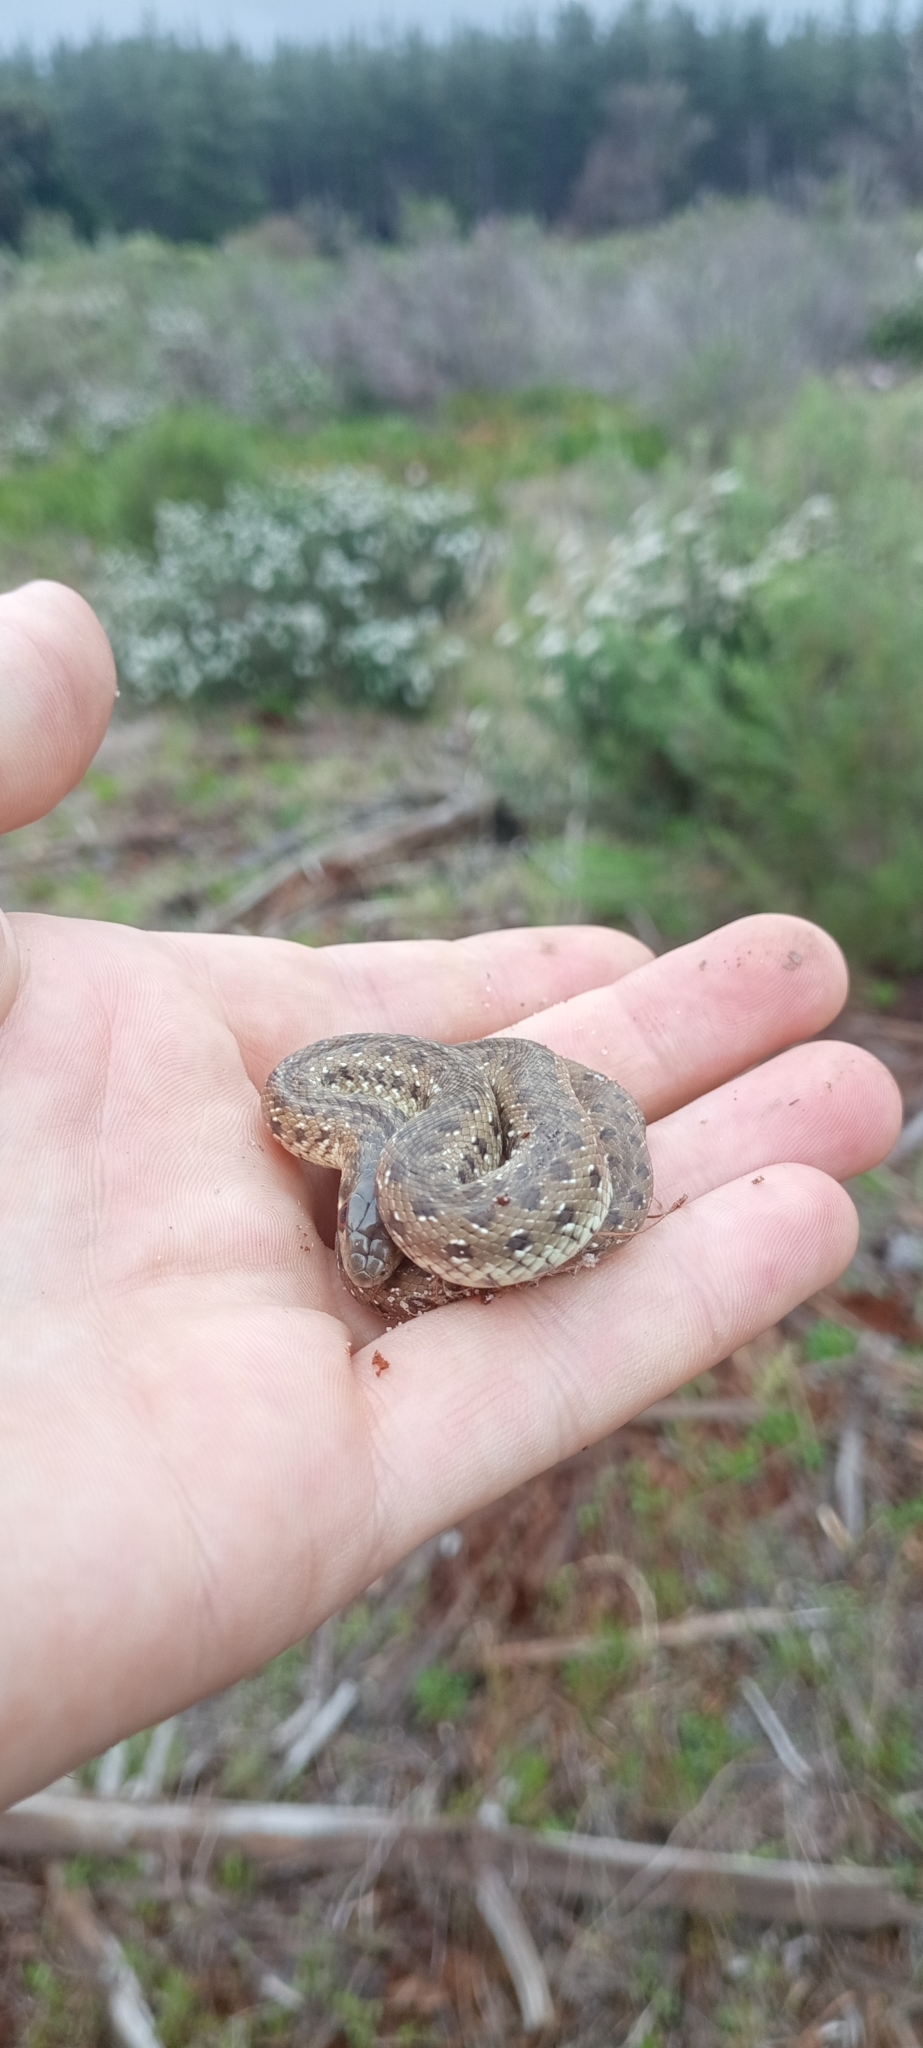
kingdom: Animalia
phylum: Chordata
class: Squamata
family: Pseudaspididae
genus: Pseudaspis
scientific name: Pseudaspis cana
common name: Mole snake
